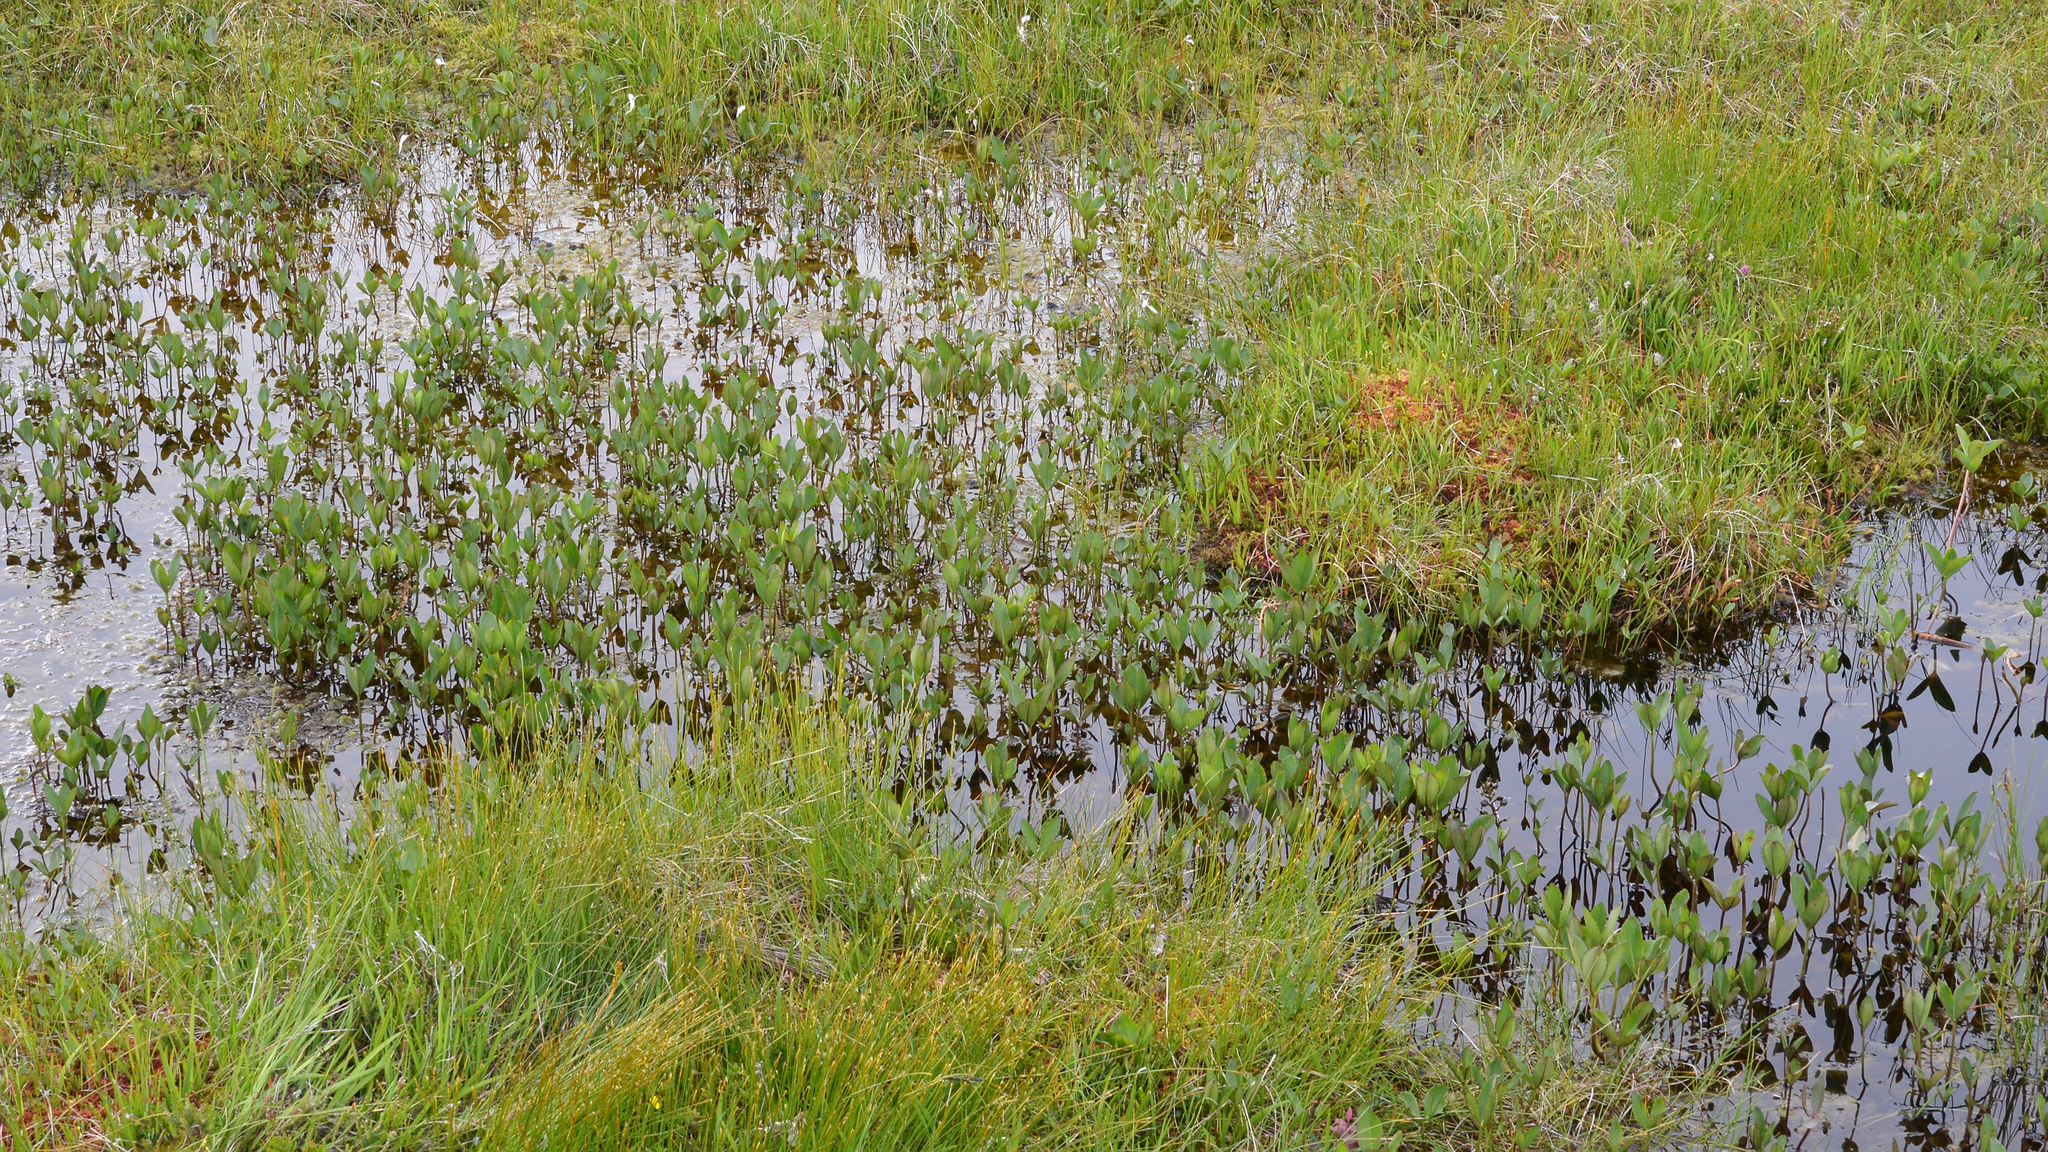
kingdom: Plantae
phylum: Tracheophyta
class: Magnoliopsida
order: Asterales
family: Menyanthaceae
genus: Menyanthes
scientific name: Menyanthes trifoliata
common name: Bogbean
